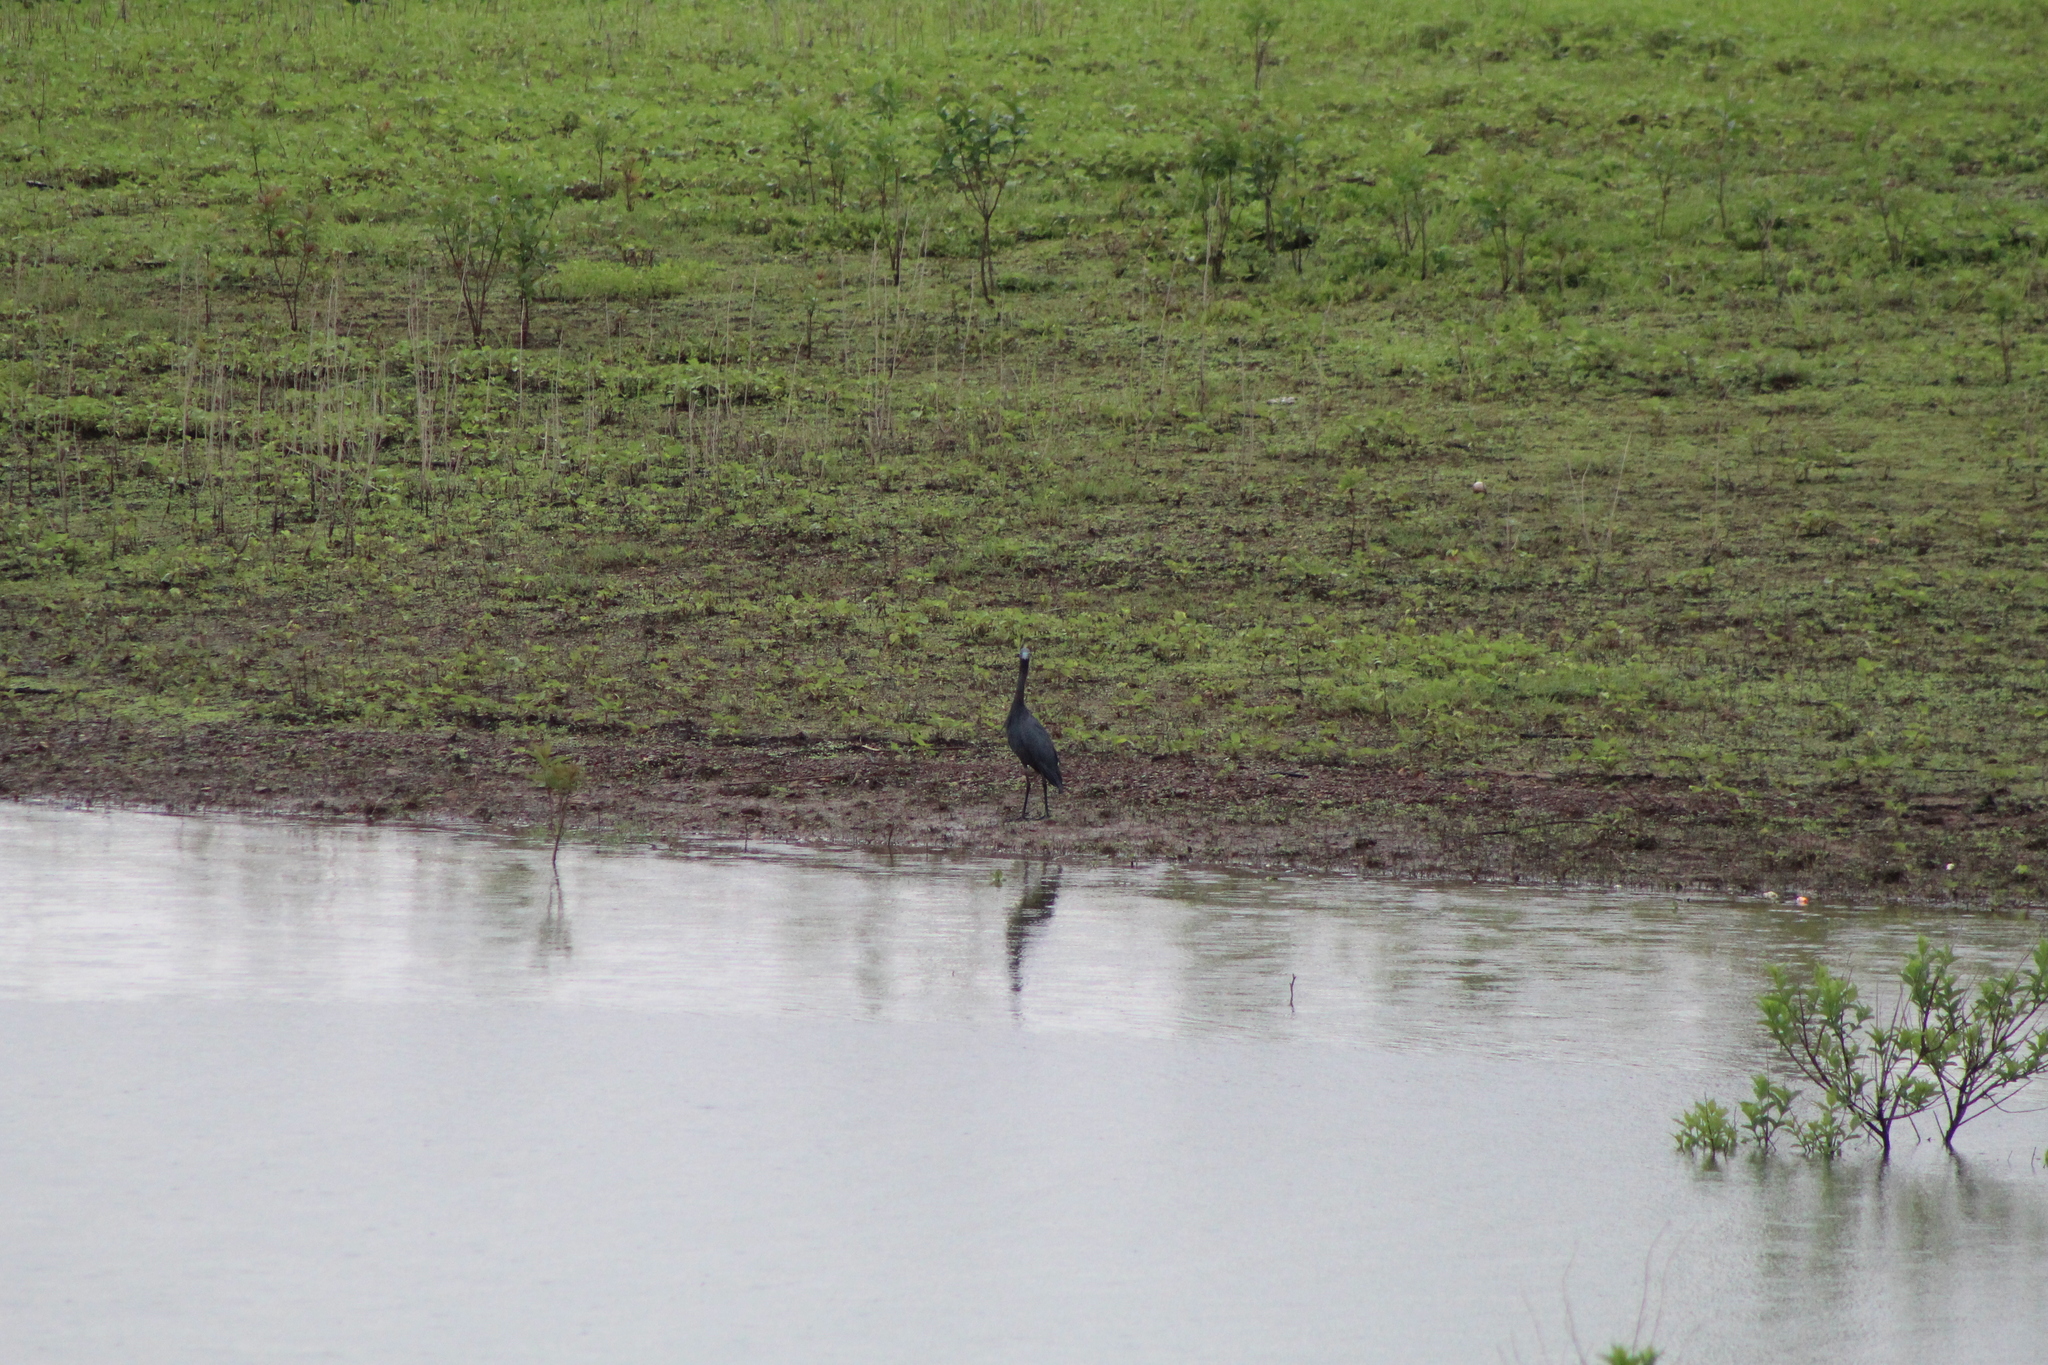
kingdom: Animalia
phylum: Chordata
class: Aves
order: Pelecaniformes
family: Ardeidae
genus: Egretta
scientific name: Egretta caerulea
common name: Little blue heron
